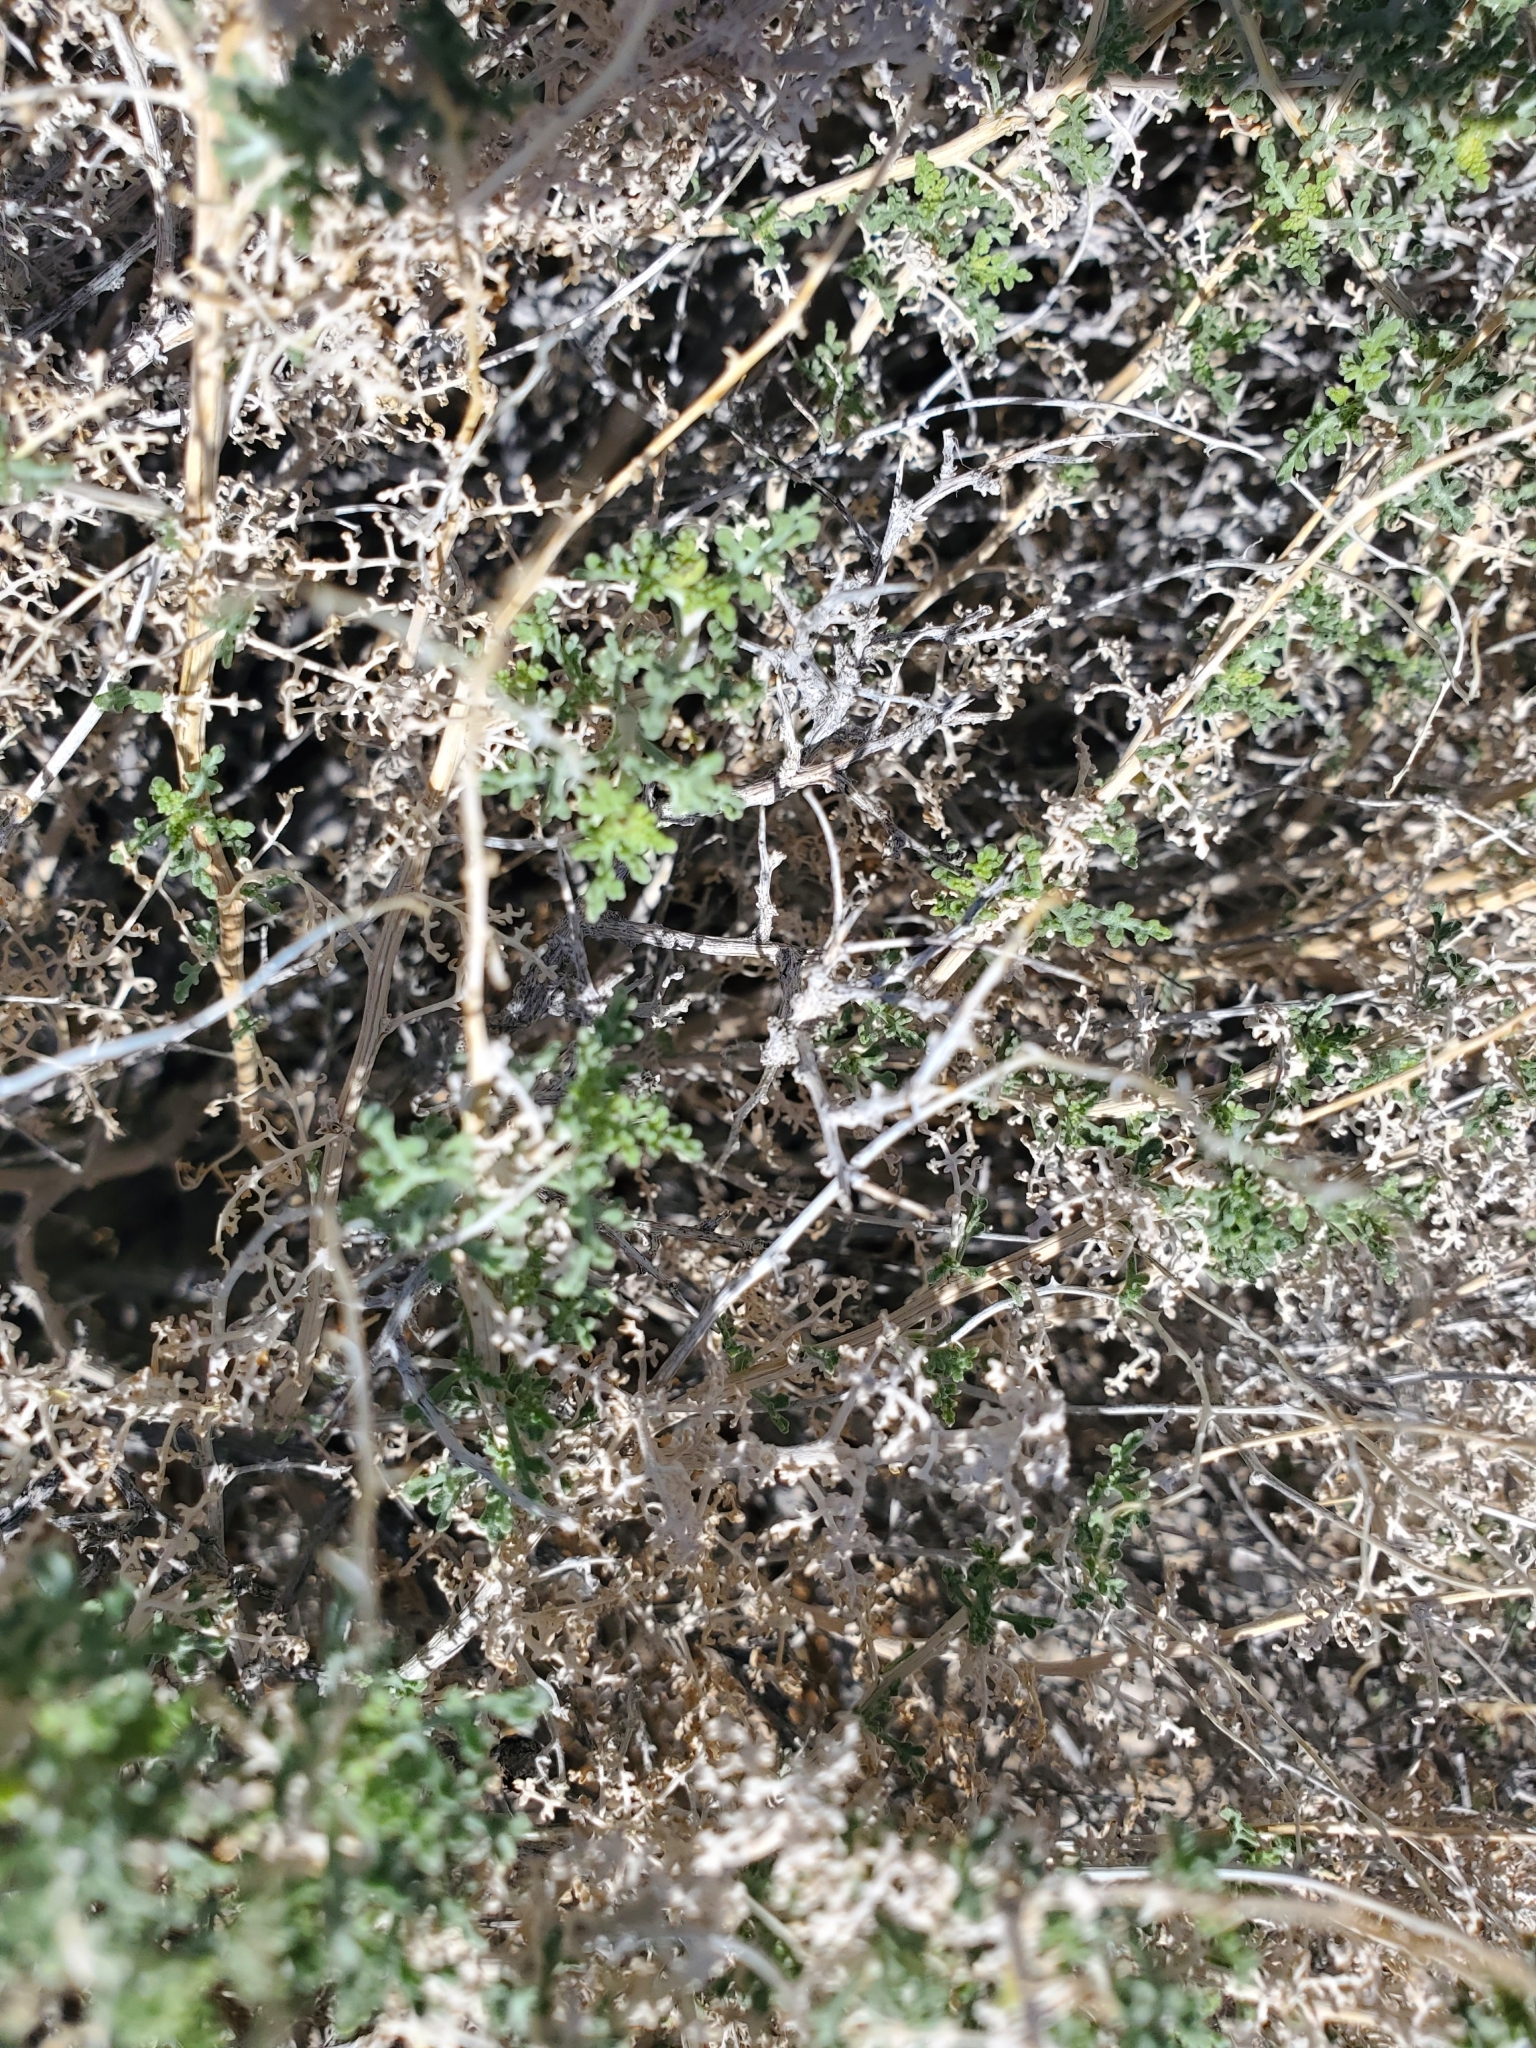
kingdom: Plantae
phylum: Tracheophyta
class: Magnoliopsida
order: Asterales
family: Asteraceae
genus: Ambrosia
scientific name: Ambrosia dumosa
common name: Bur-sage
